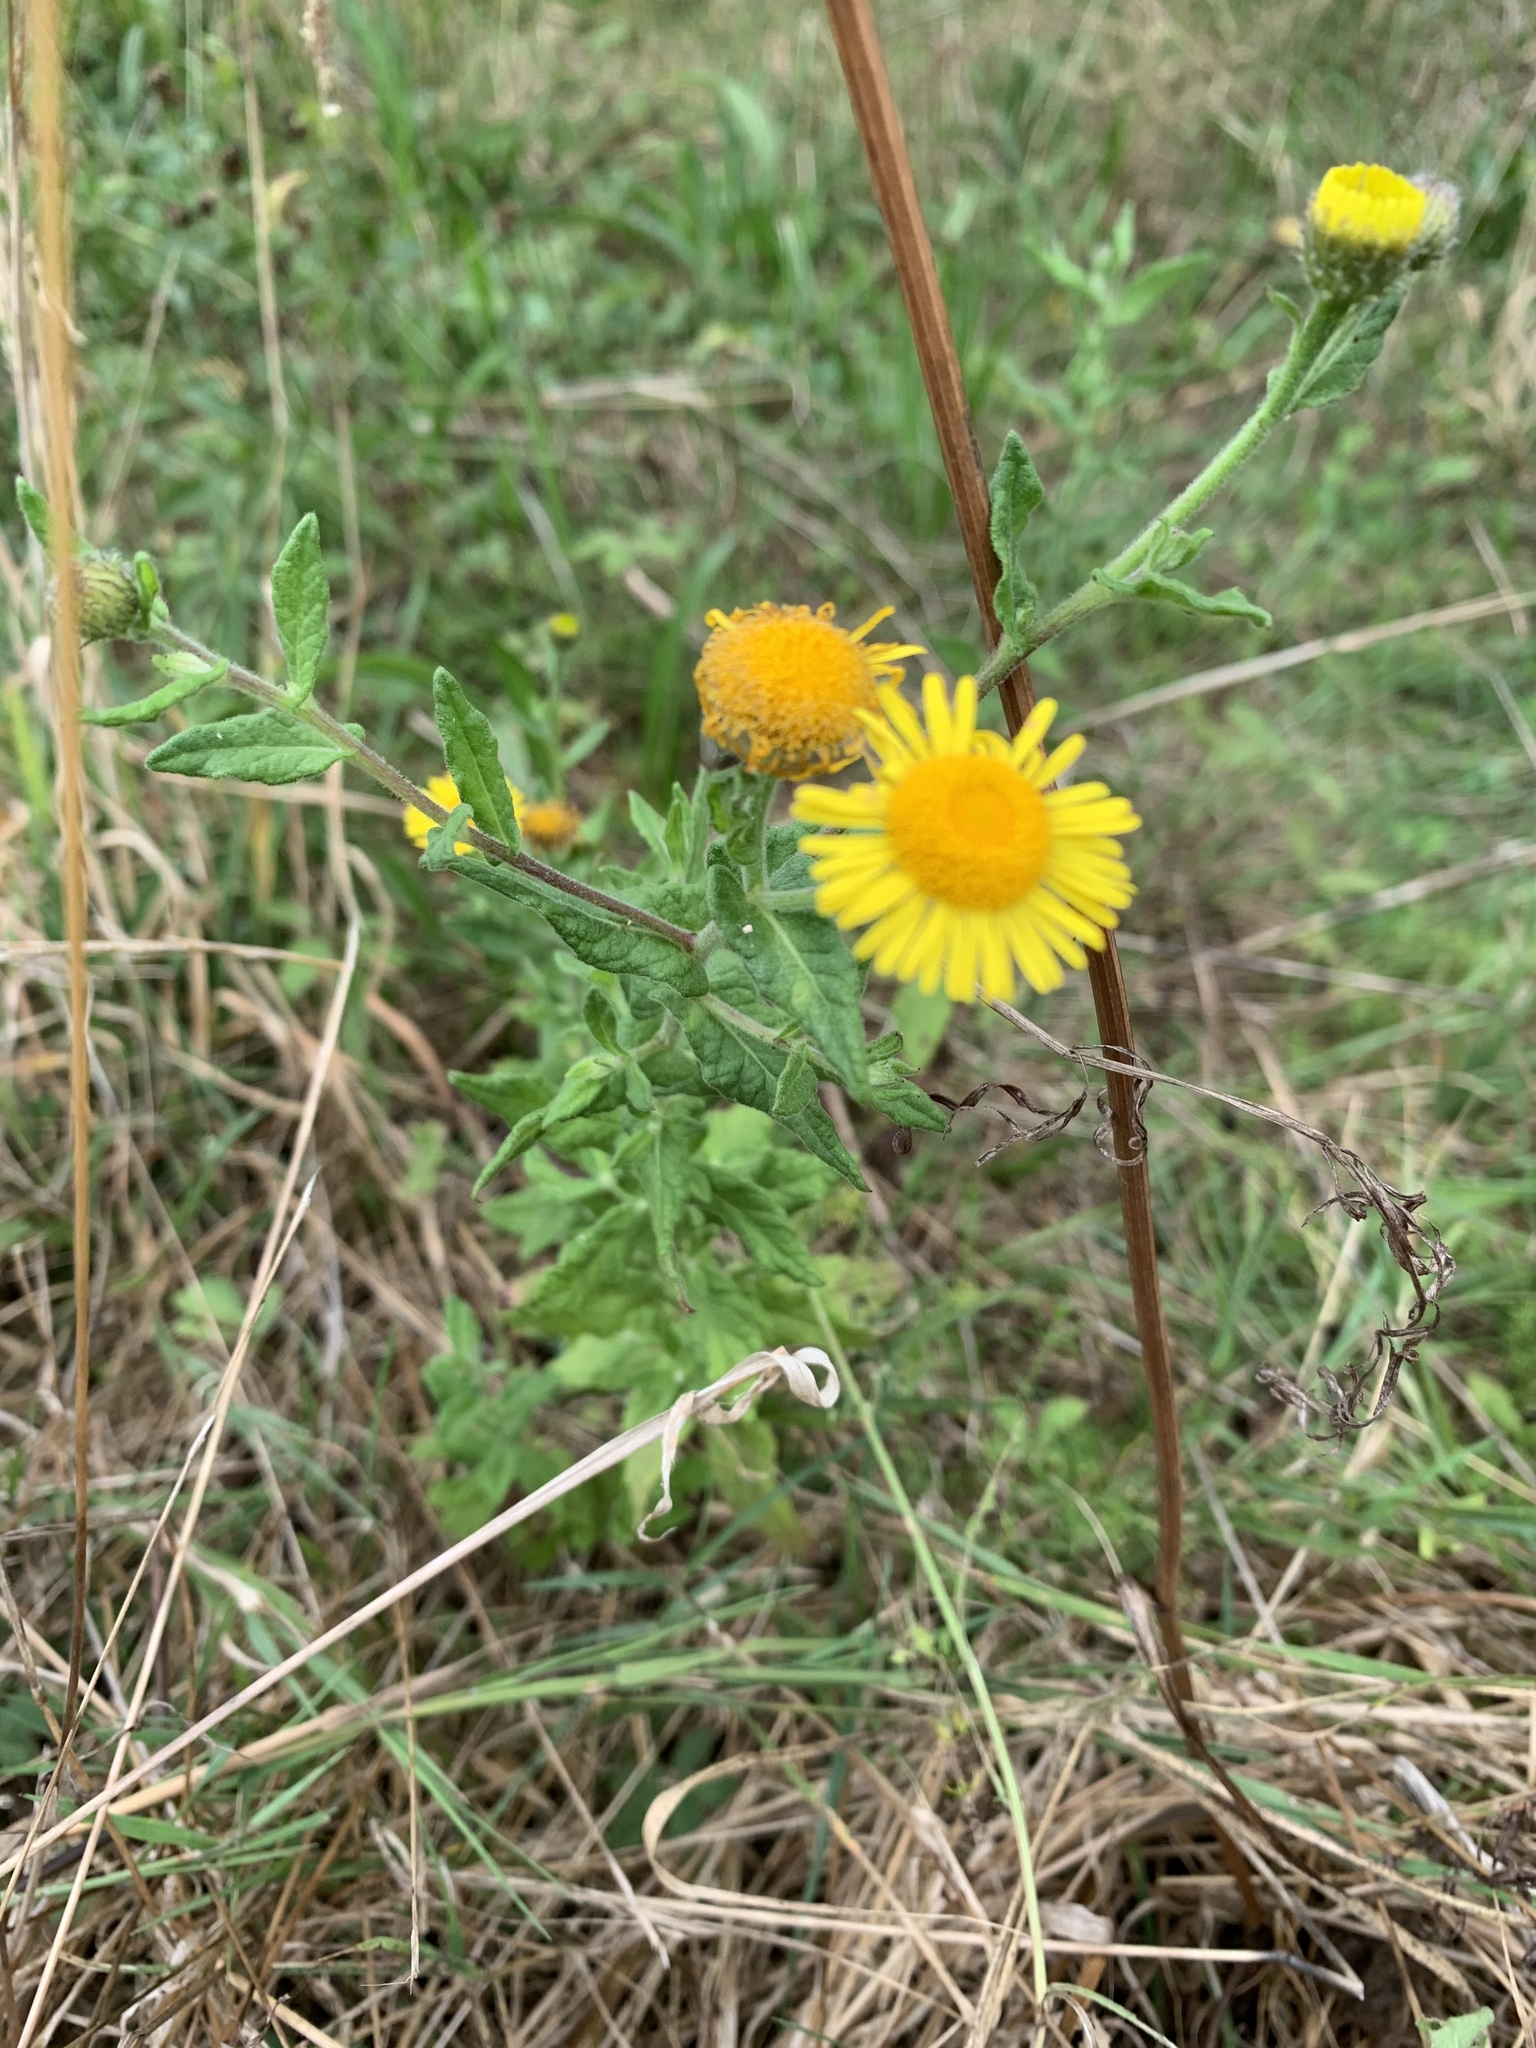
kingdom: Plantae
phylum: Tracheophyta
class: Magnoliopsida
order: Asterales
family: Asteraceae
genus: Pulicaria
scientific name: Pulicaria dysenterica
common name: Common fleabane
